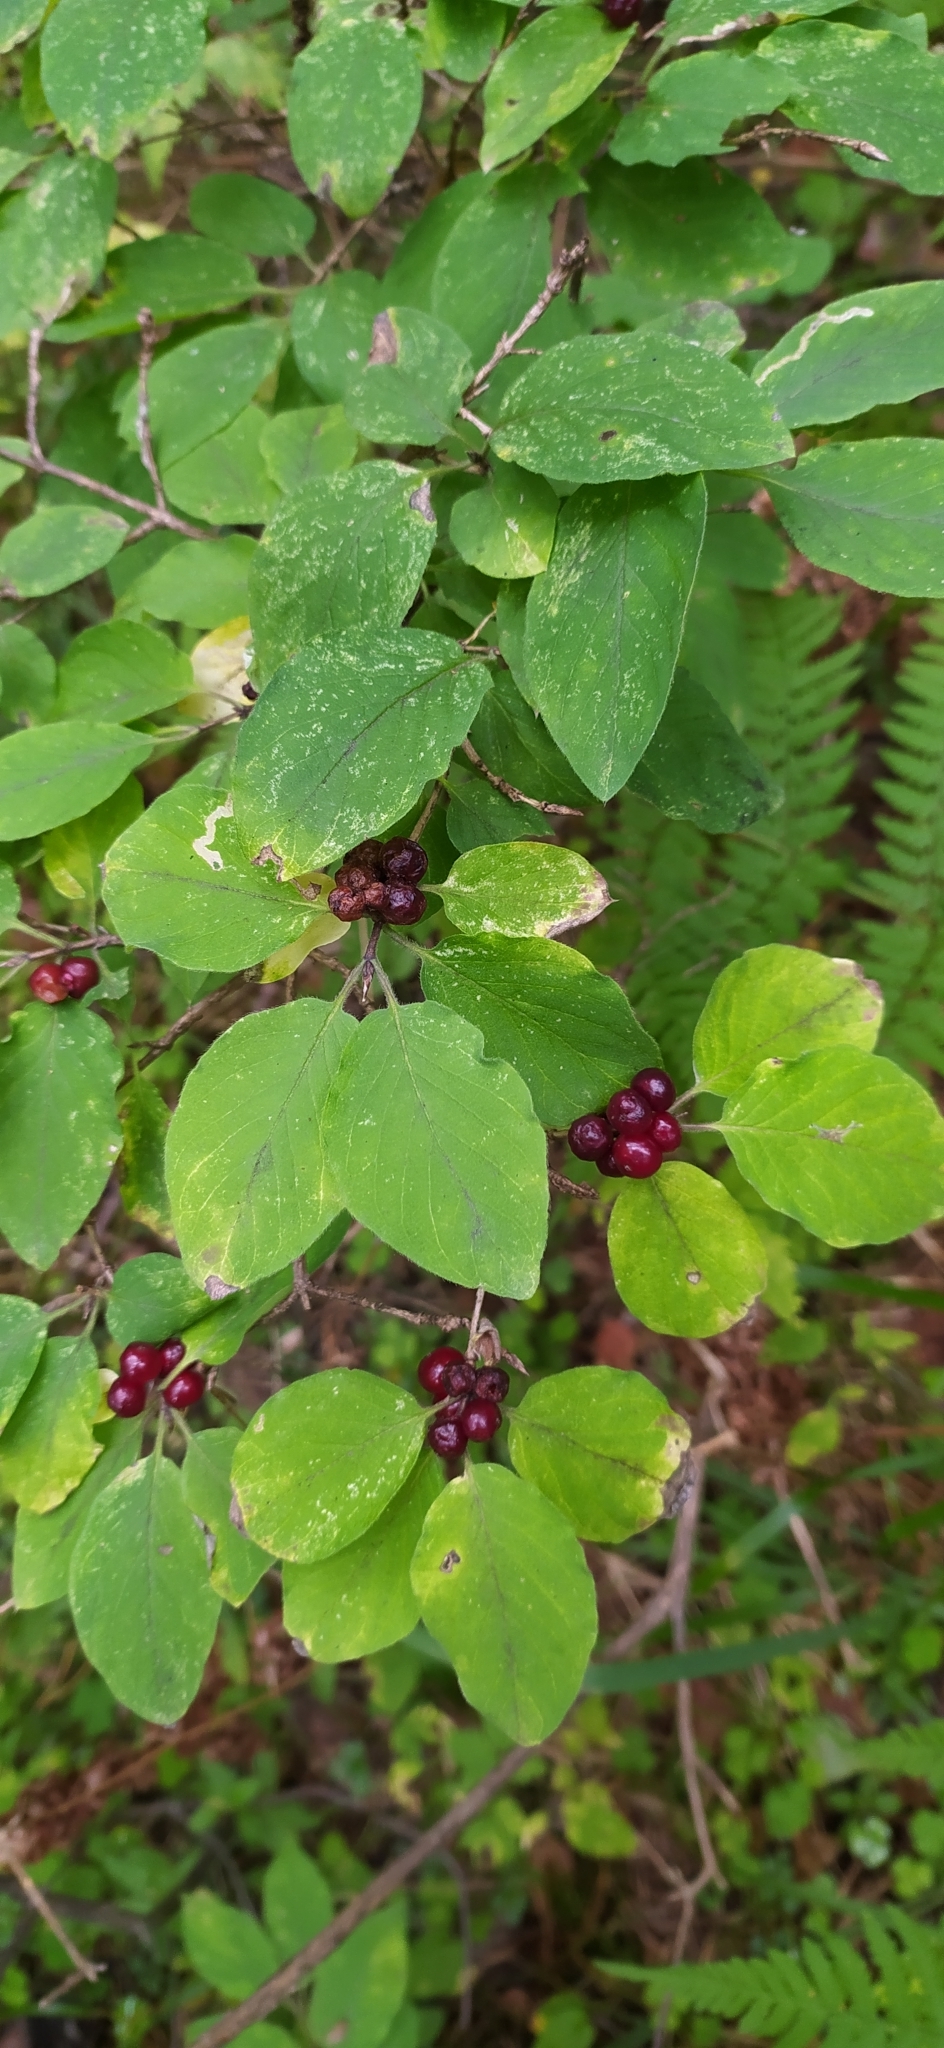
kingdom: Plantae
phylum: Tracheophyta
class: Magnoliopsida
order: Dipsacales
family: Caprifoliaceae
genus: Lonicera
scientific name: Lonicera xylosteum
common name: Fly honeysuckle
